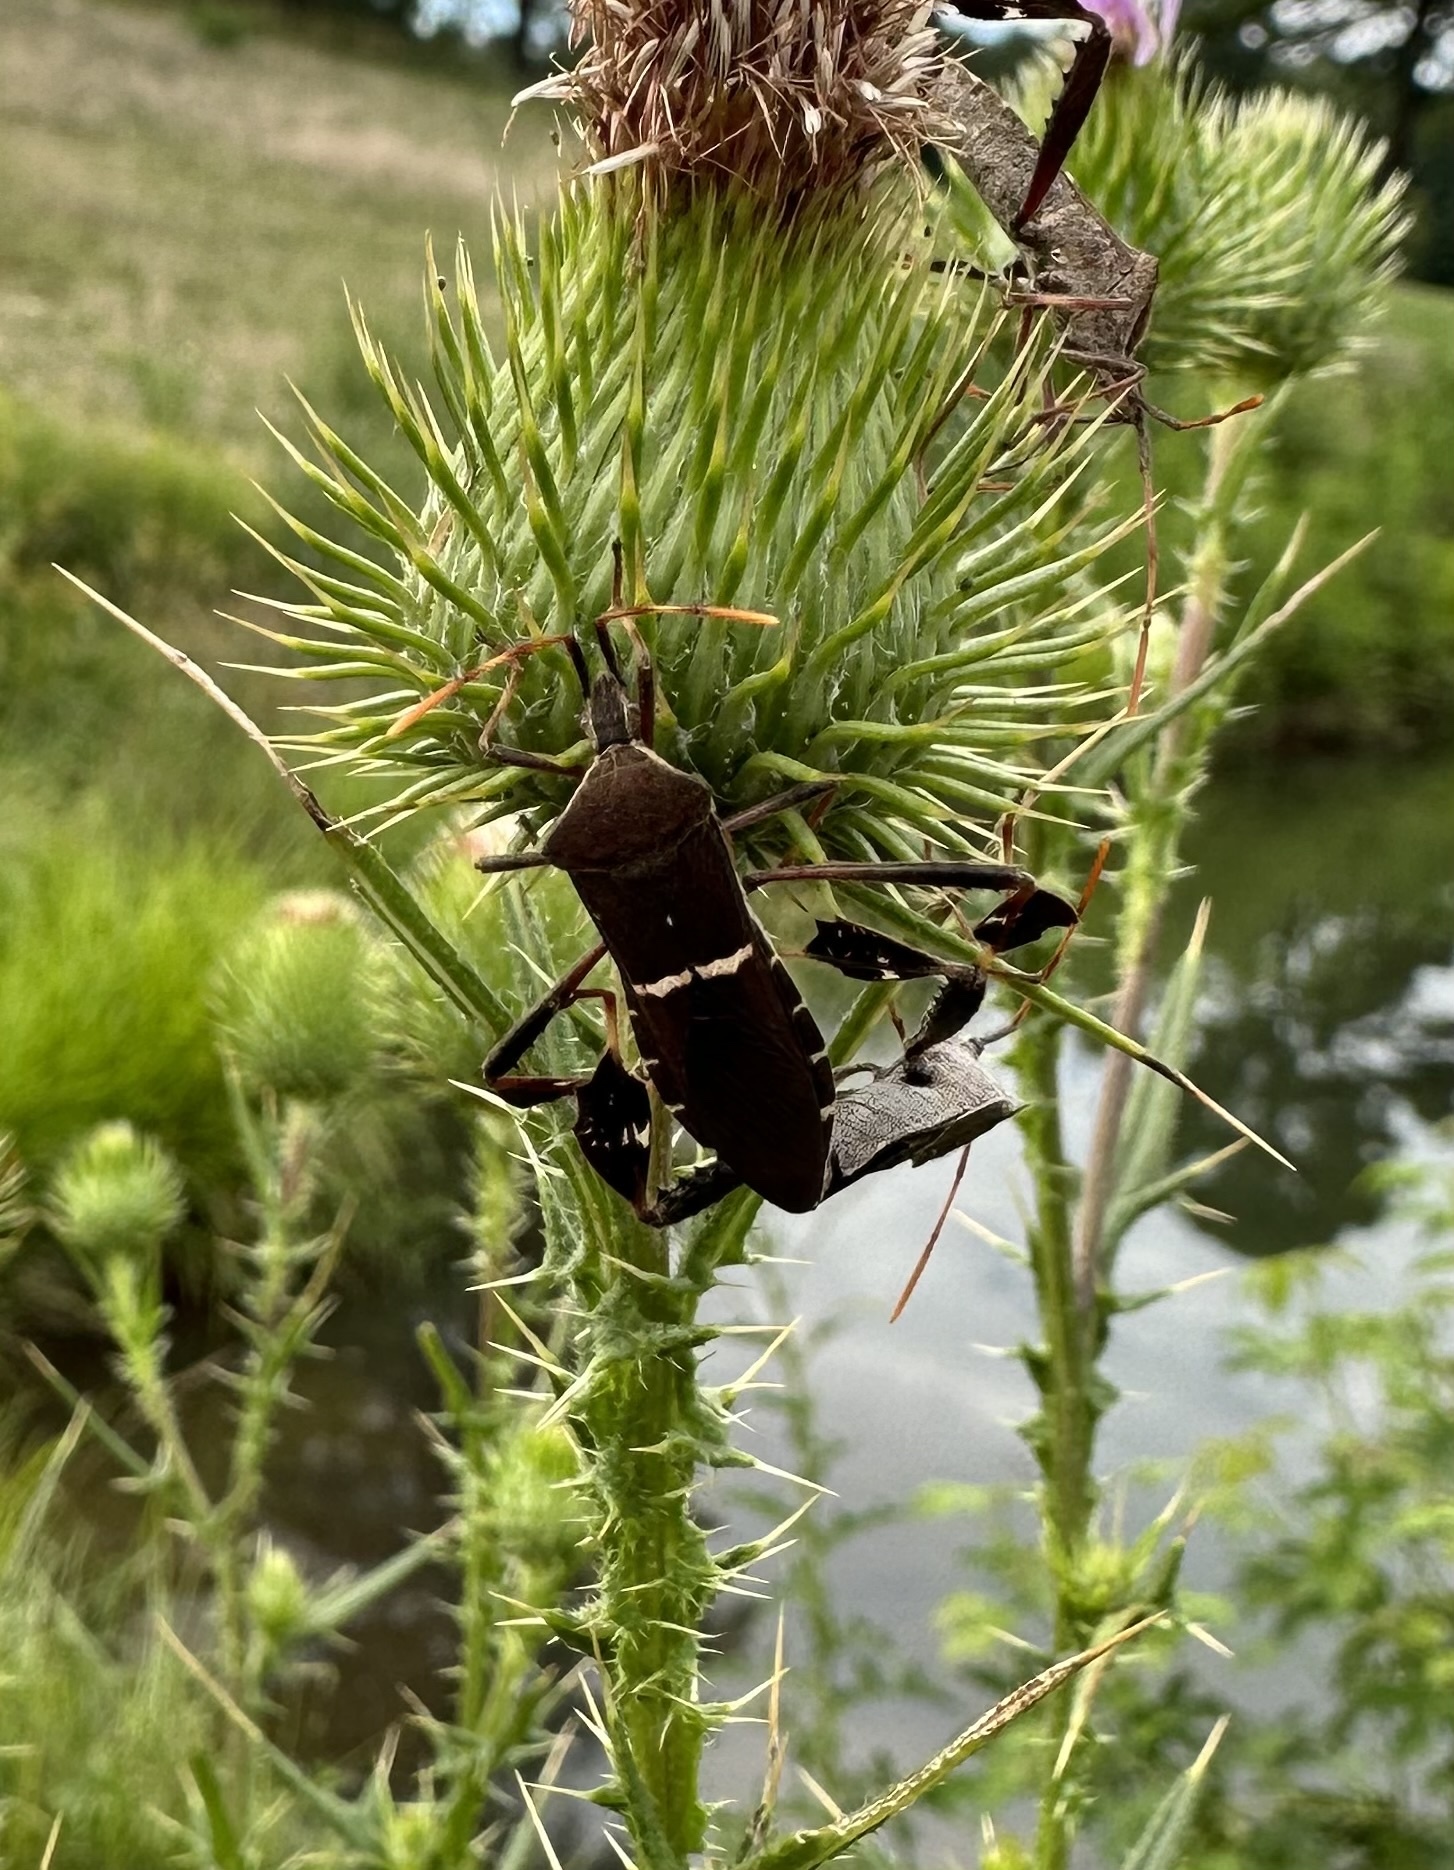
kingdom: Animalia
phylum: Arthropoda
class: Insecta
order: Hemiptera
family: Coreidae
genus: Leptoglossus
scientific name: Leptoglossus phyllopus
